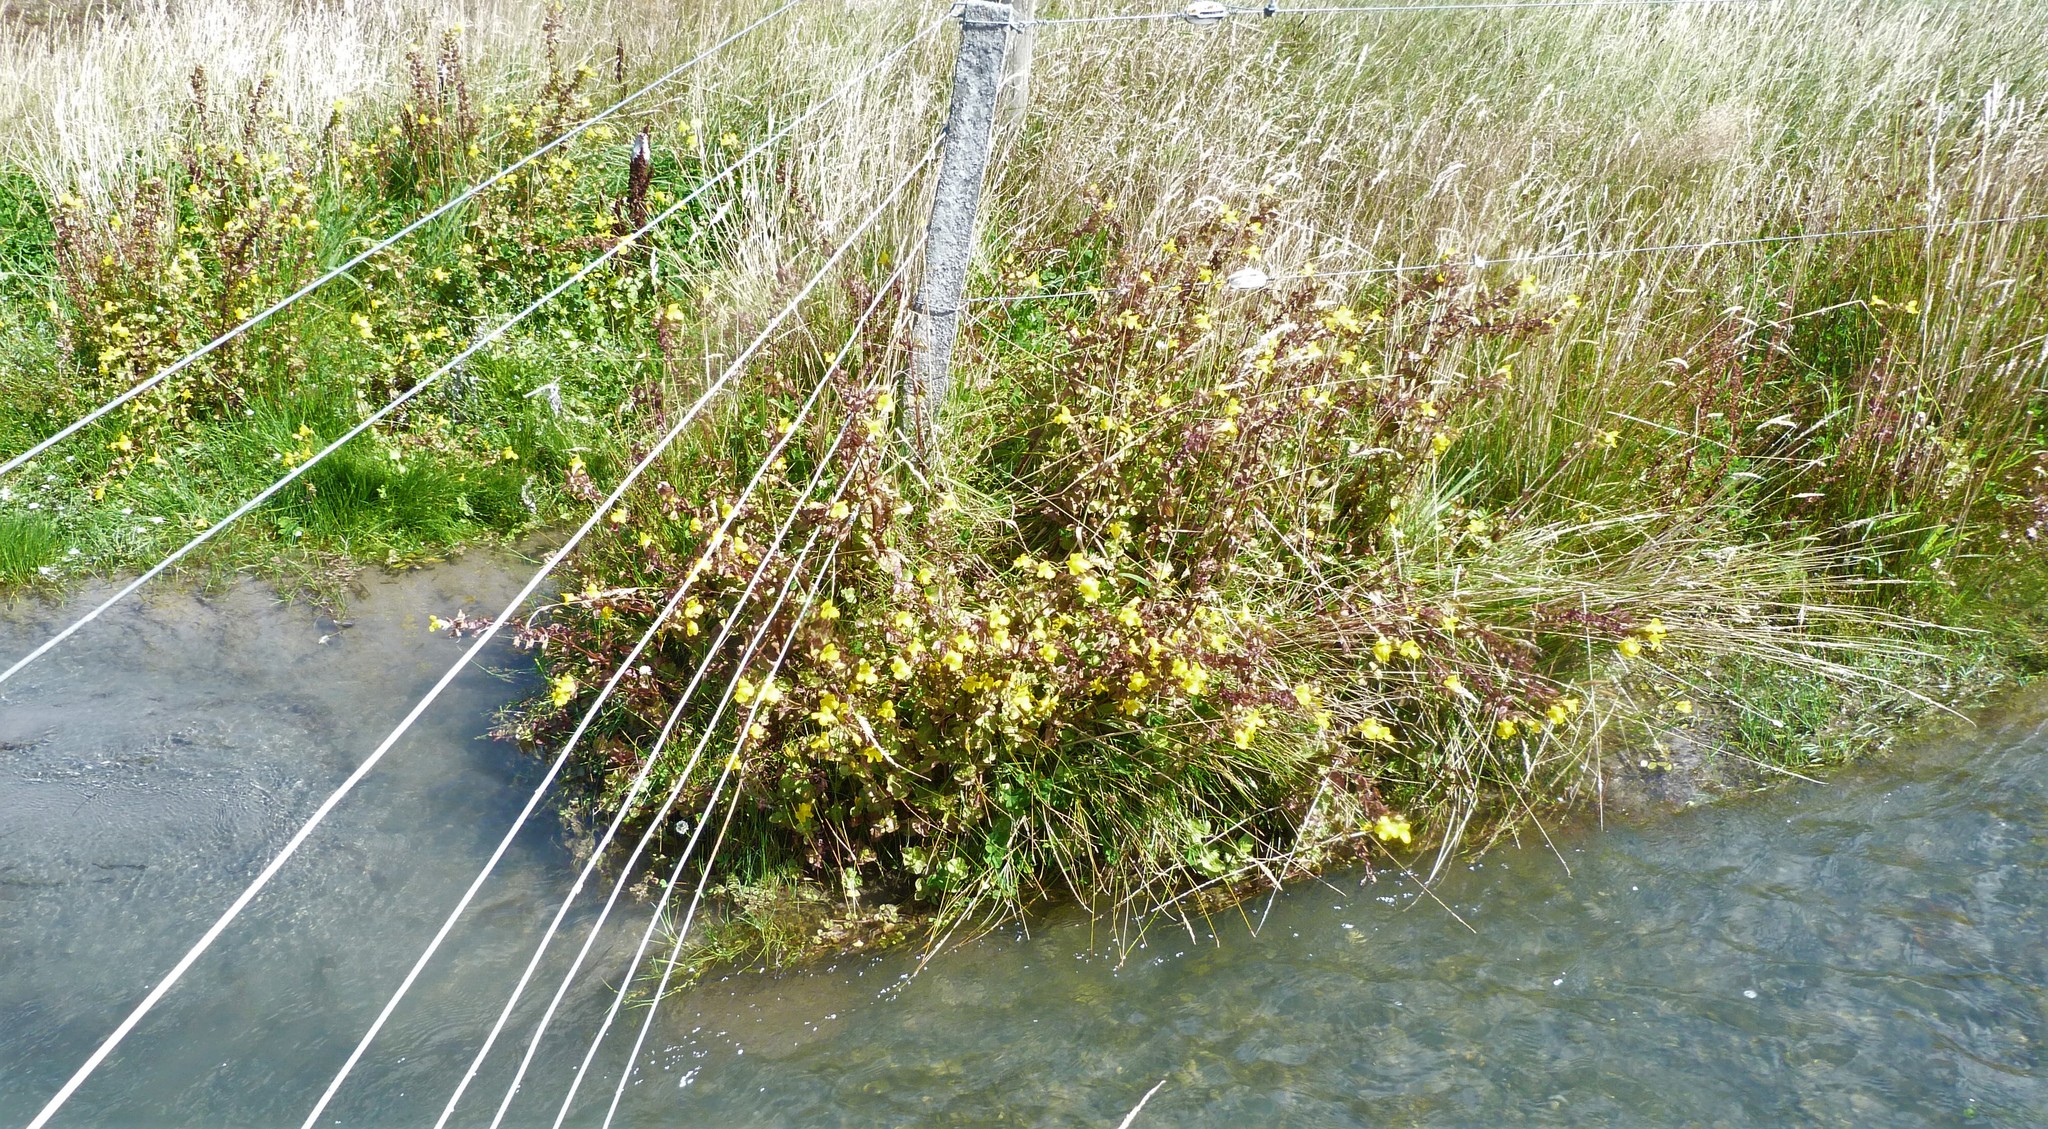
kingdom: Plantae
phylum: Tracheophyta
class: Magnoliopsida
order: Lamiales
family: Phrymaceae
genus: Erythranthe
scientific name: Erythranthe guttata
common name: Monkeyflower
